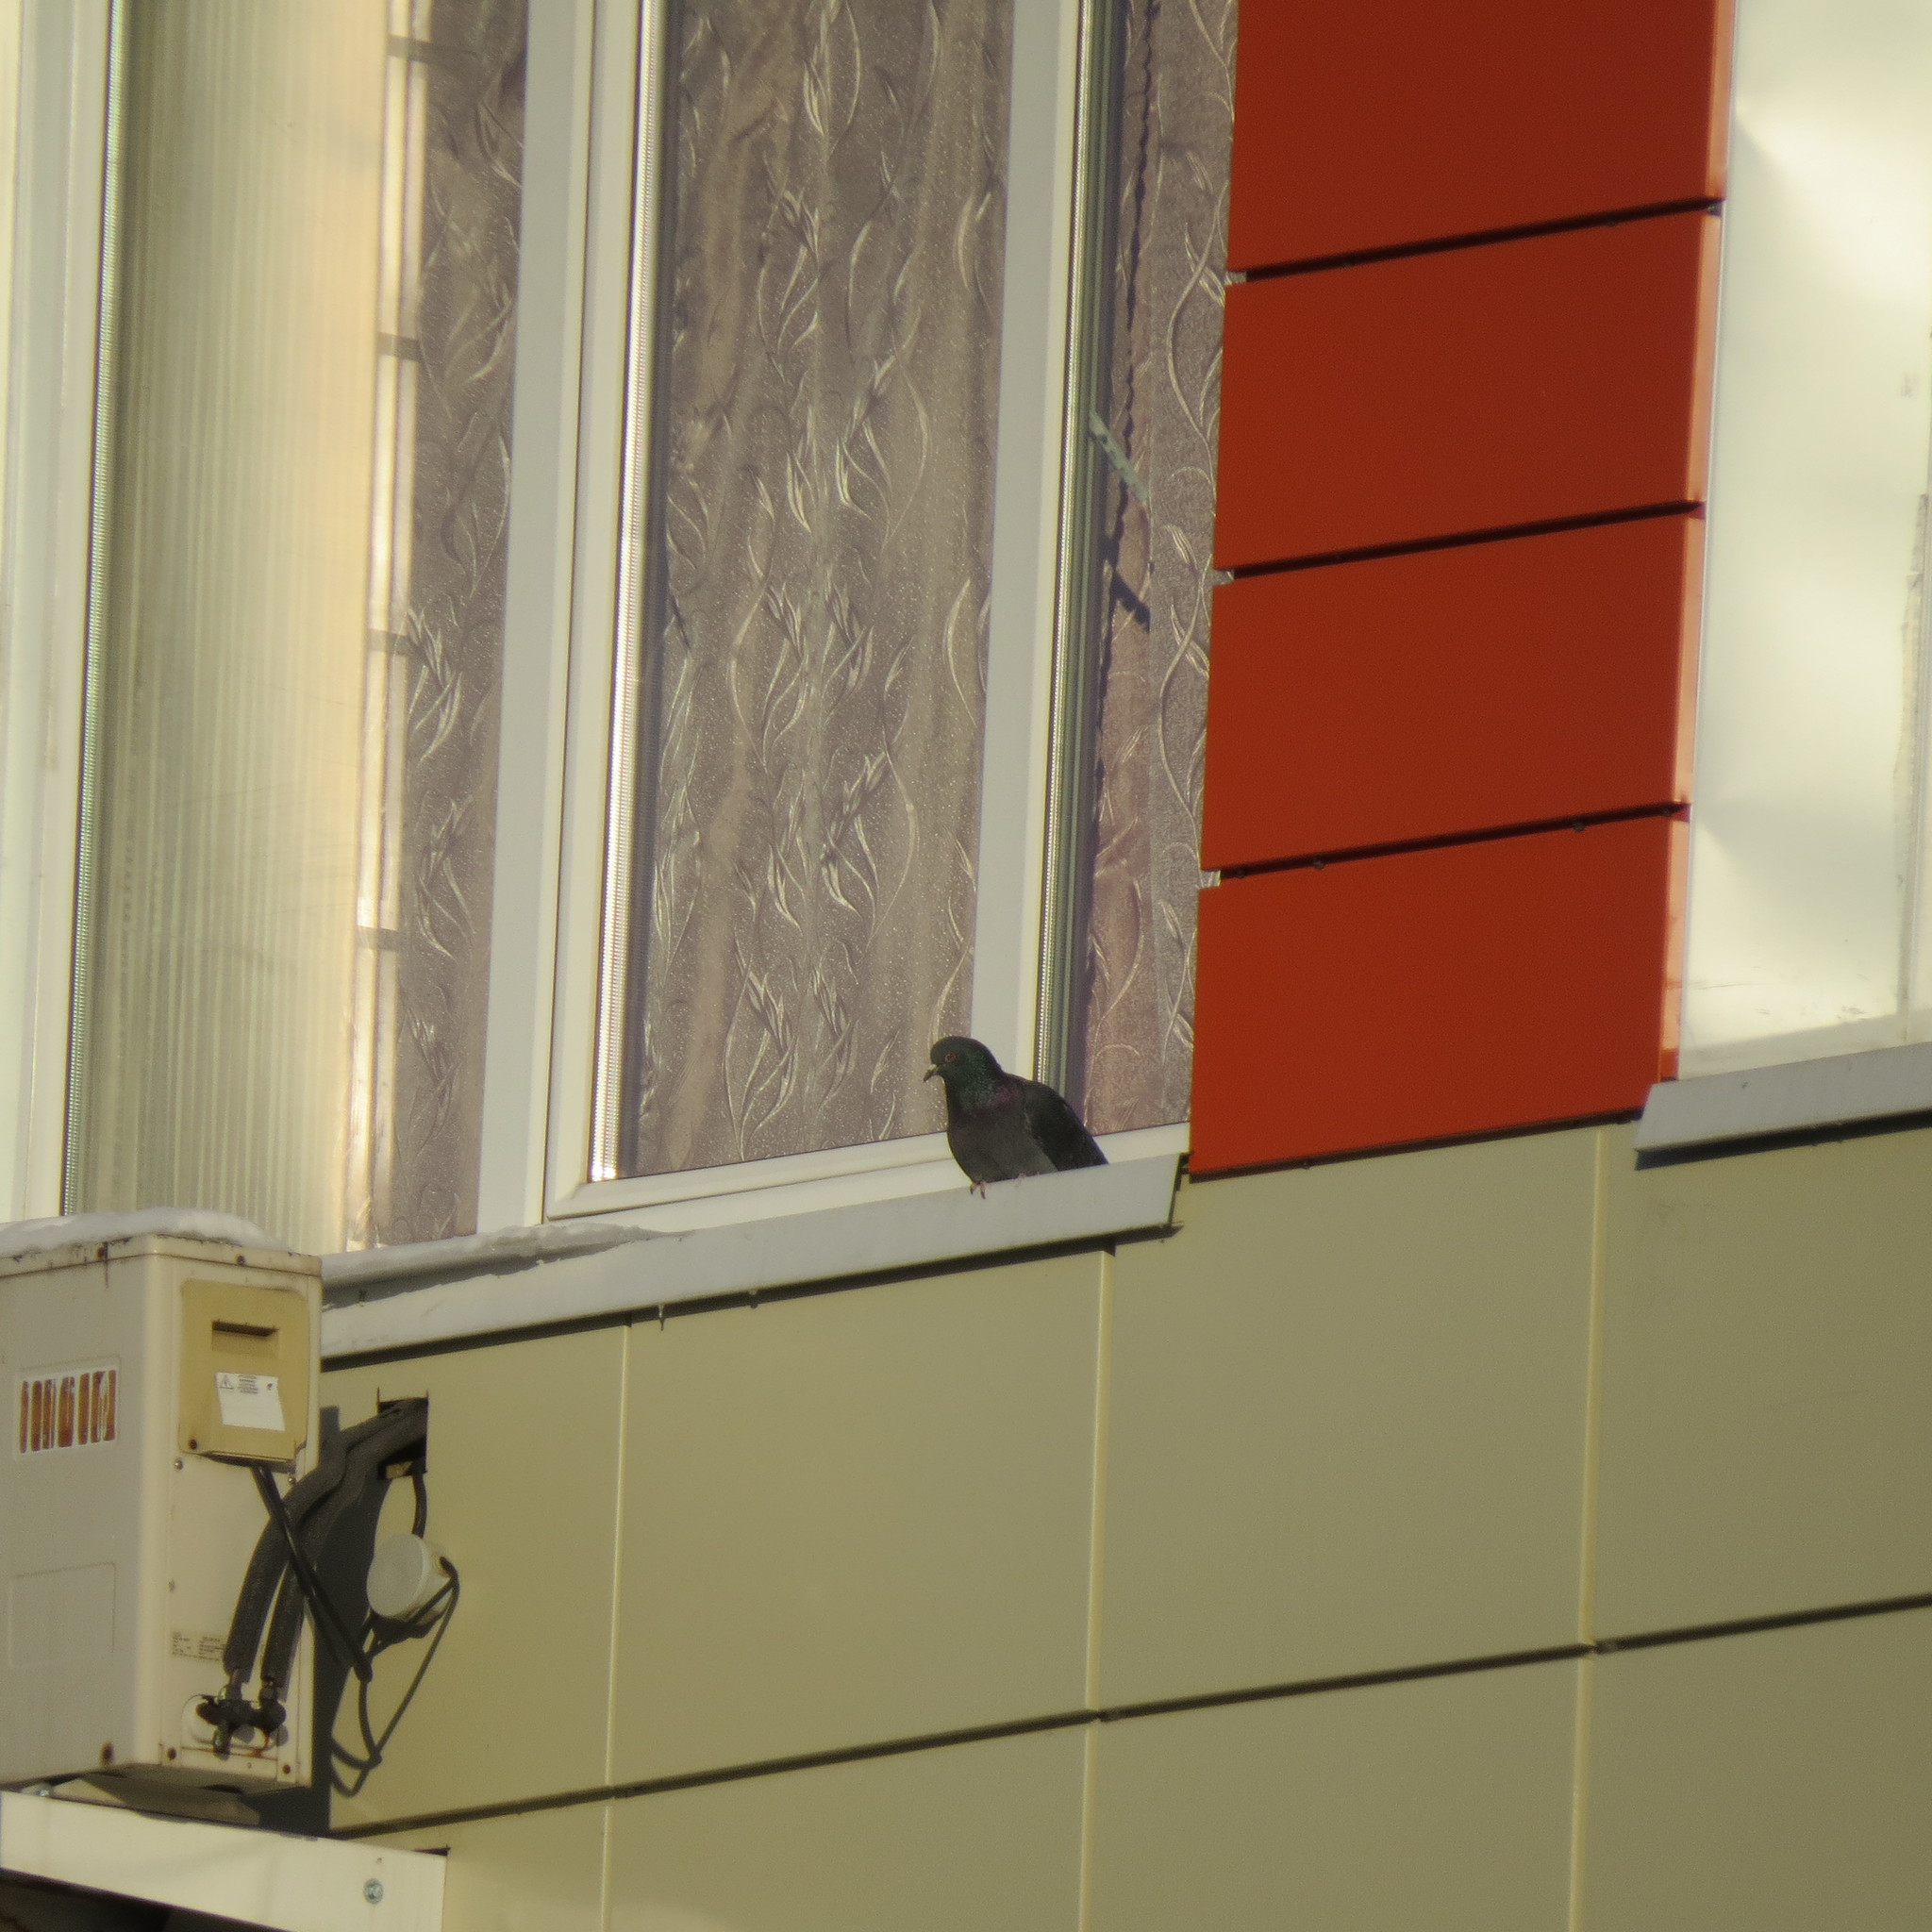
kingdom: Animalia
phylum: Chordata
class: Aves
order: Columbiformes
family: Columbidae
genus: Columba
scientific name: Columba livia
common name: Rock pigeon
